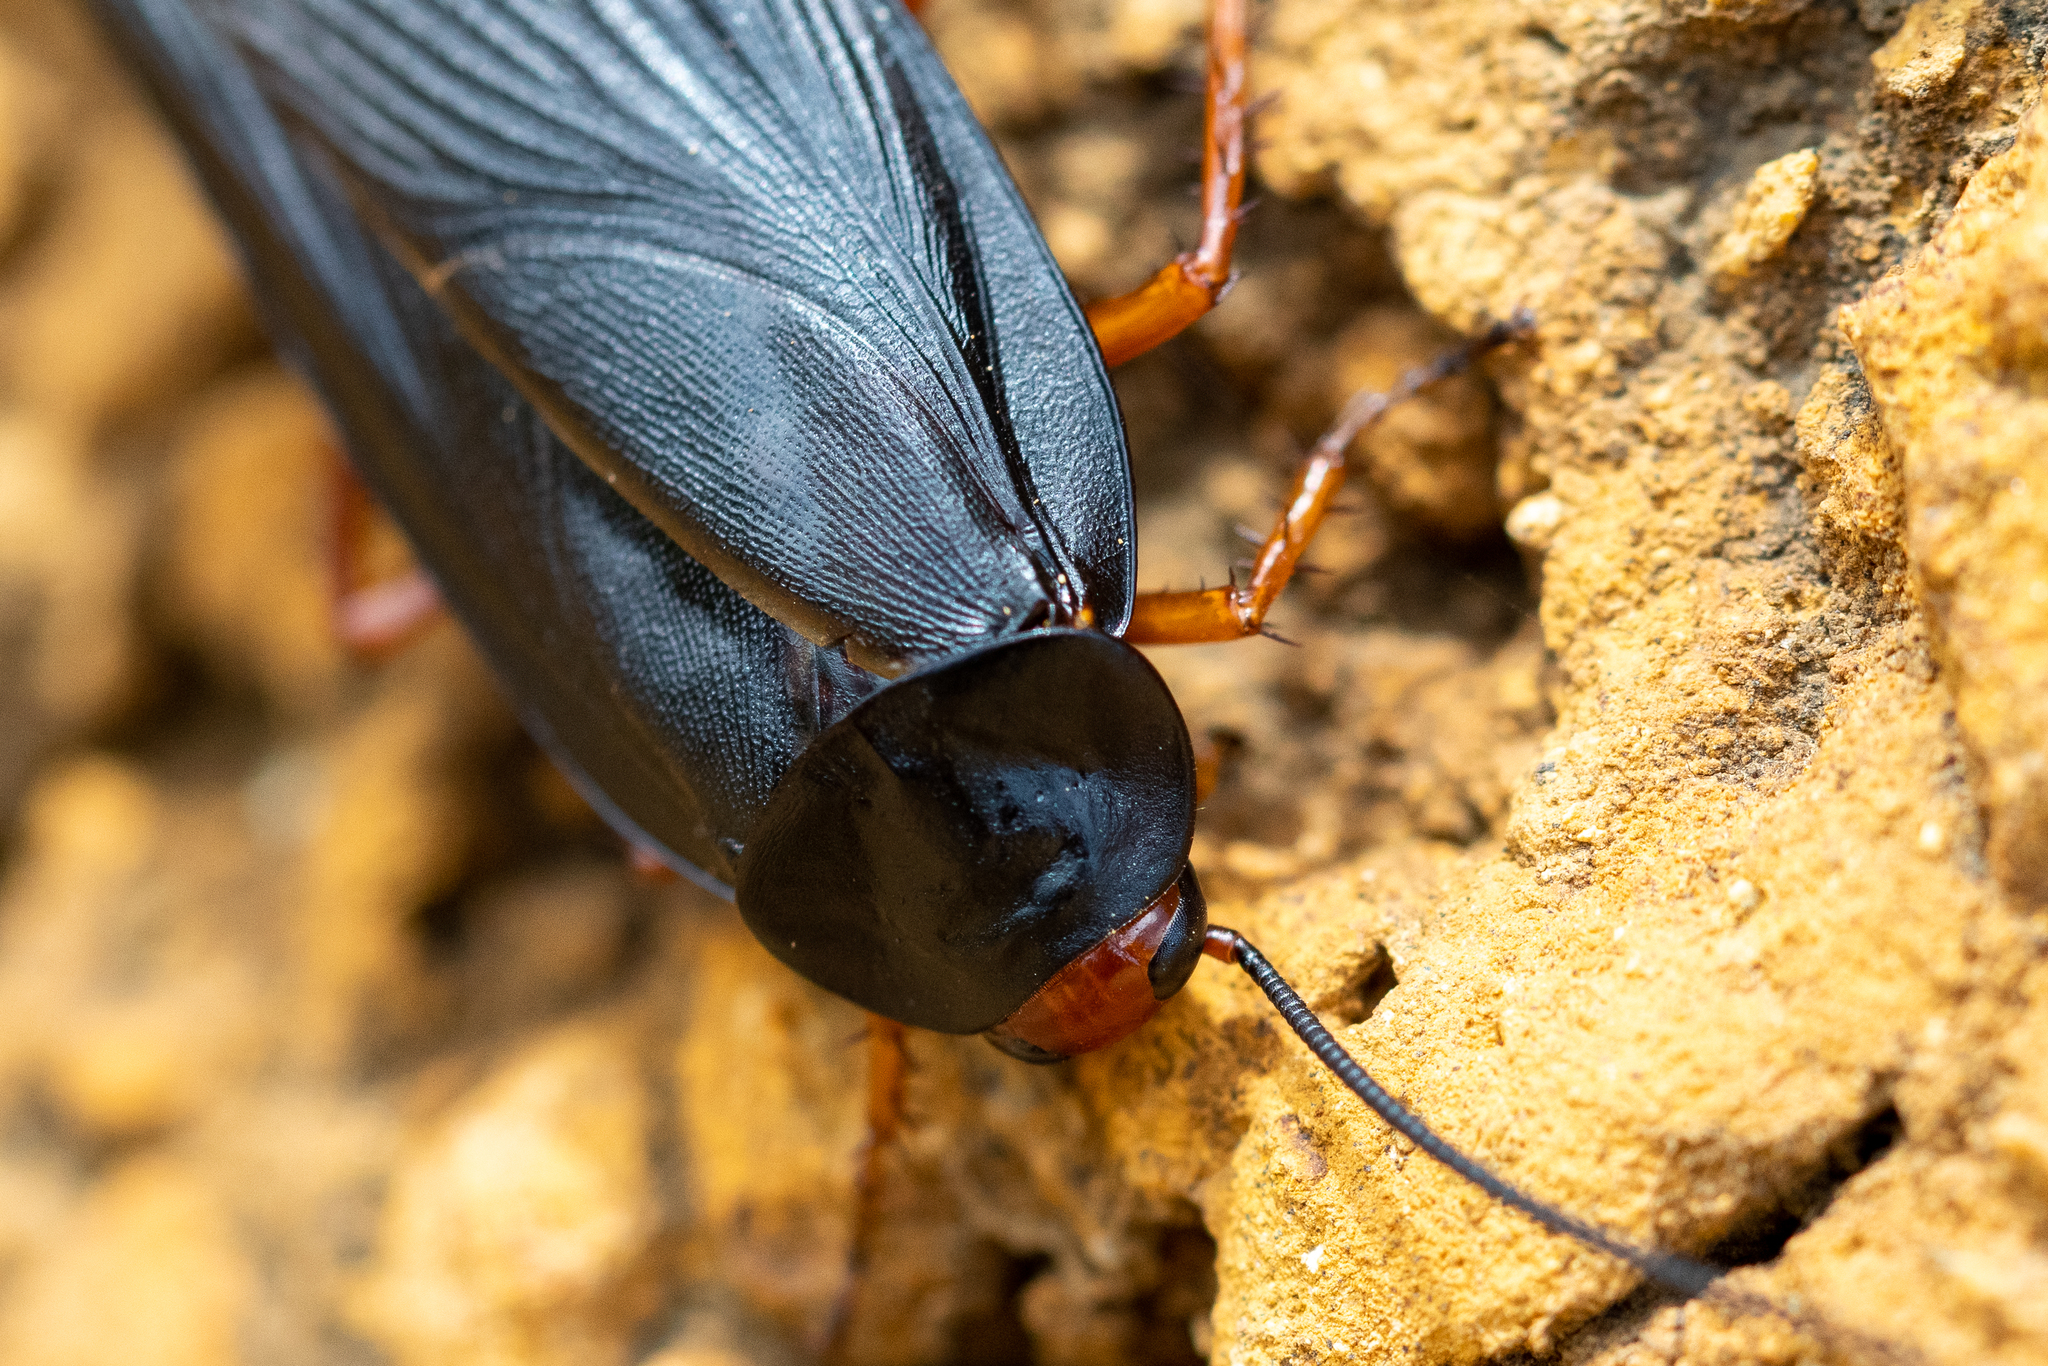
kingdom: Animalia
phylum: Arthropoda
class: Insecta
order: Blattodea
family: Blattidae
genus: Deropeltis
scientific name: Deropeltis erythrocephala
